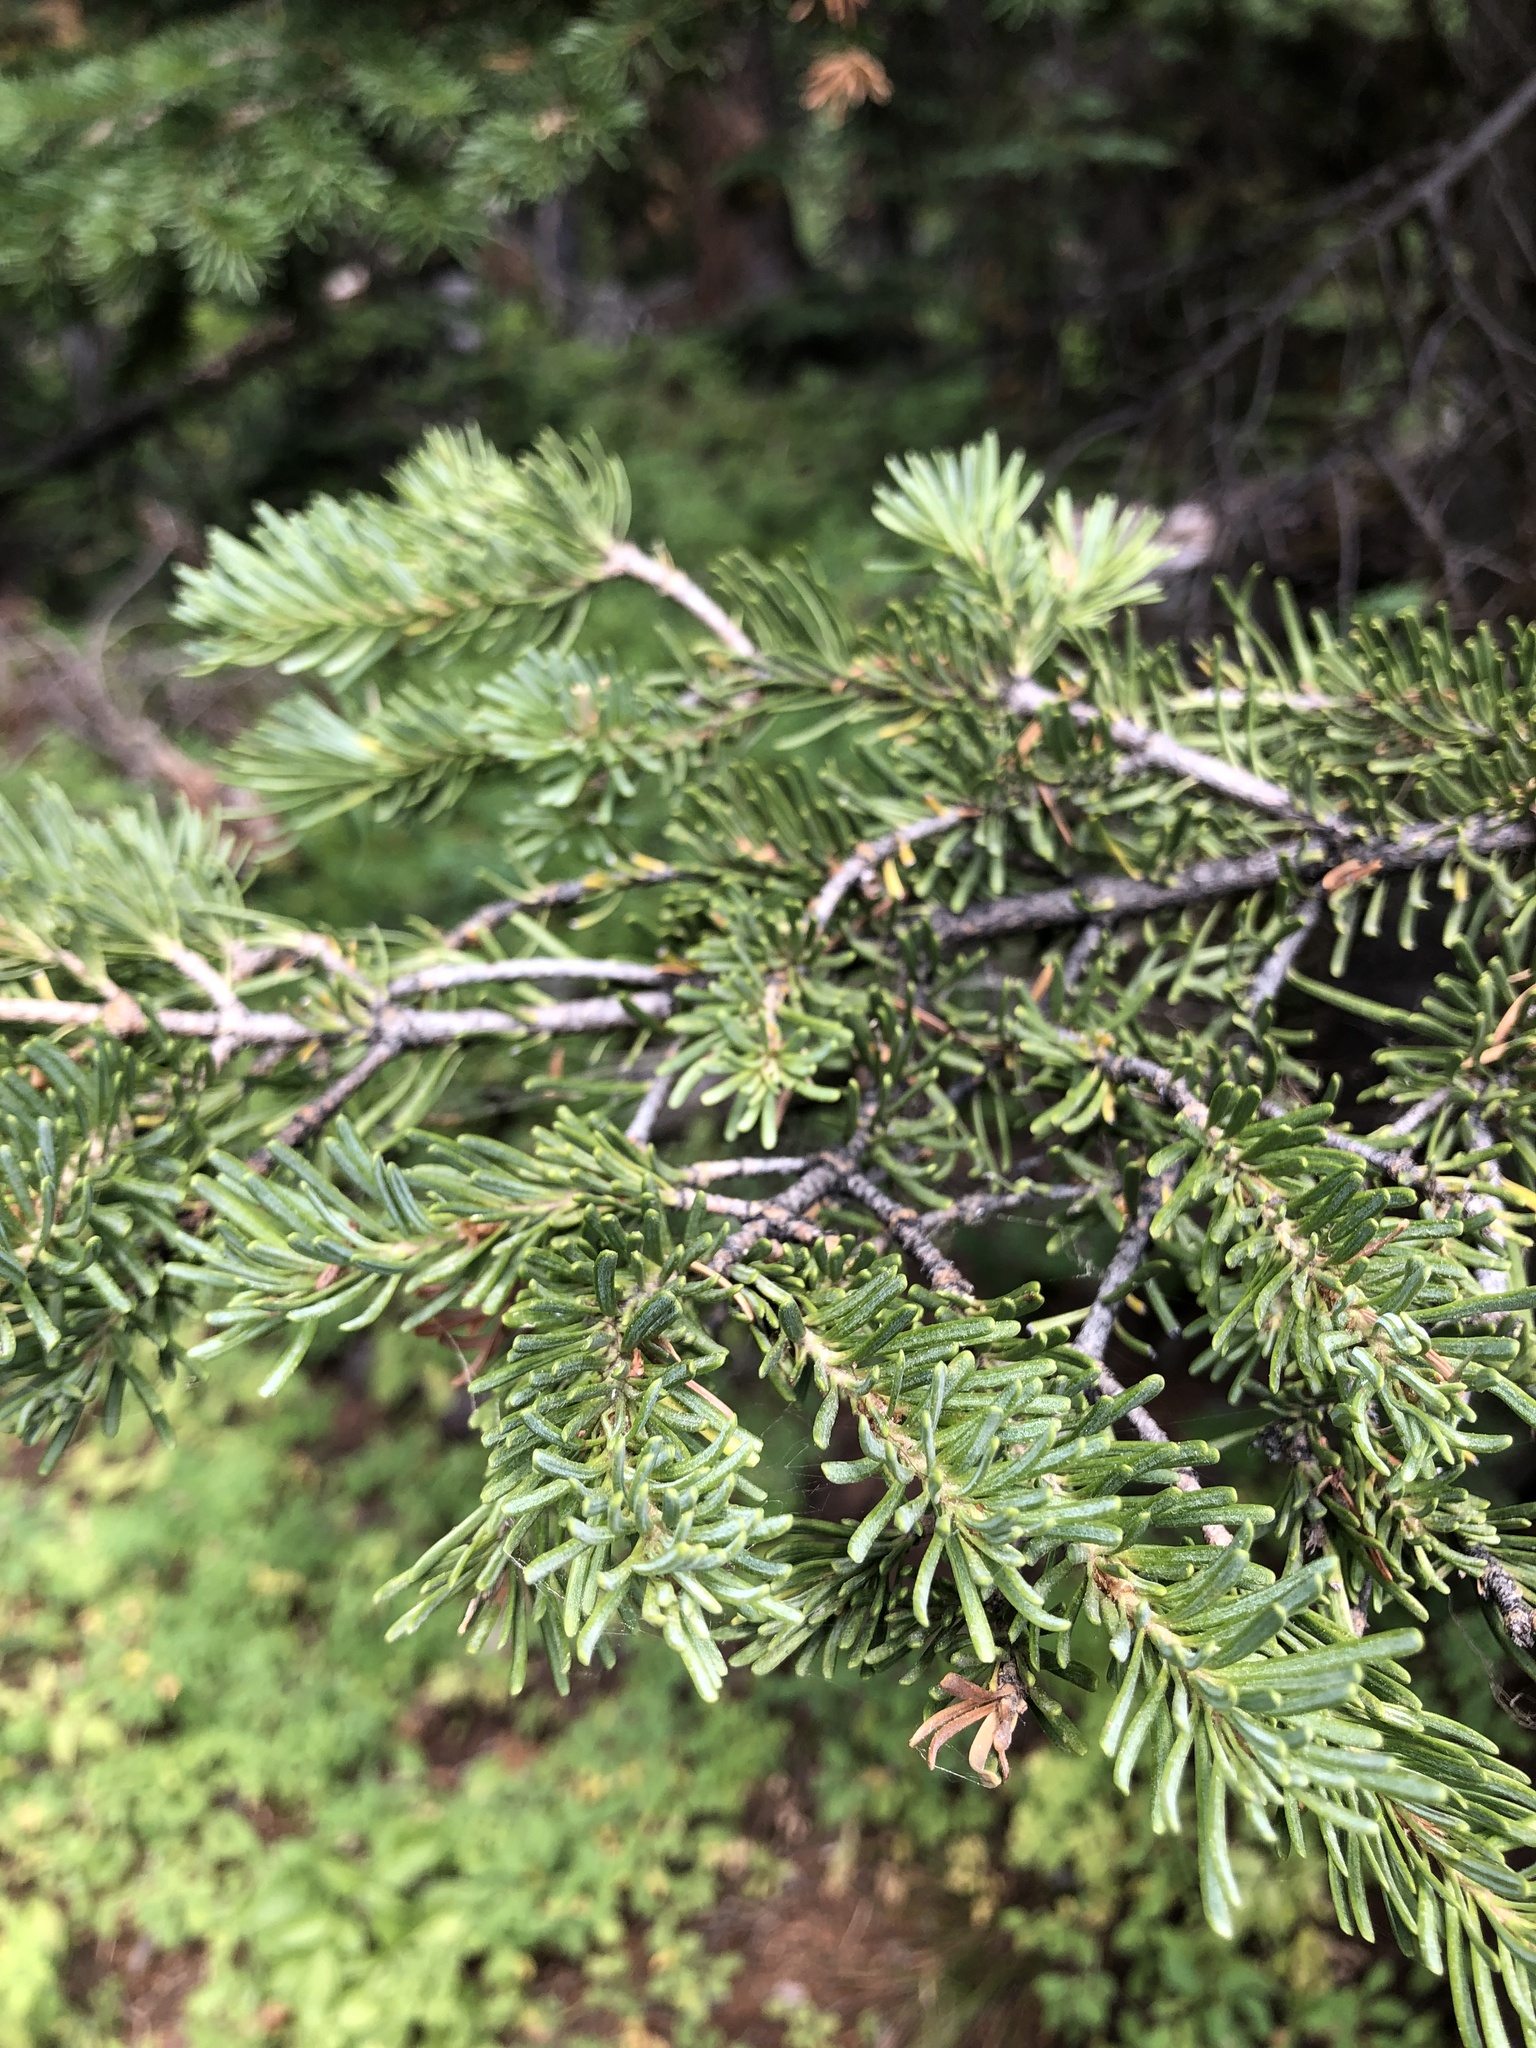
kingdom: Plantae
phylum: Tracheophyta
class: Pinopsida
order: Pinales
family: Pinaceae
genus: Abies
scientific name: Abies lasiocarpa
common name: Subalpine fir
